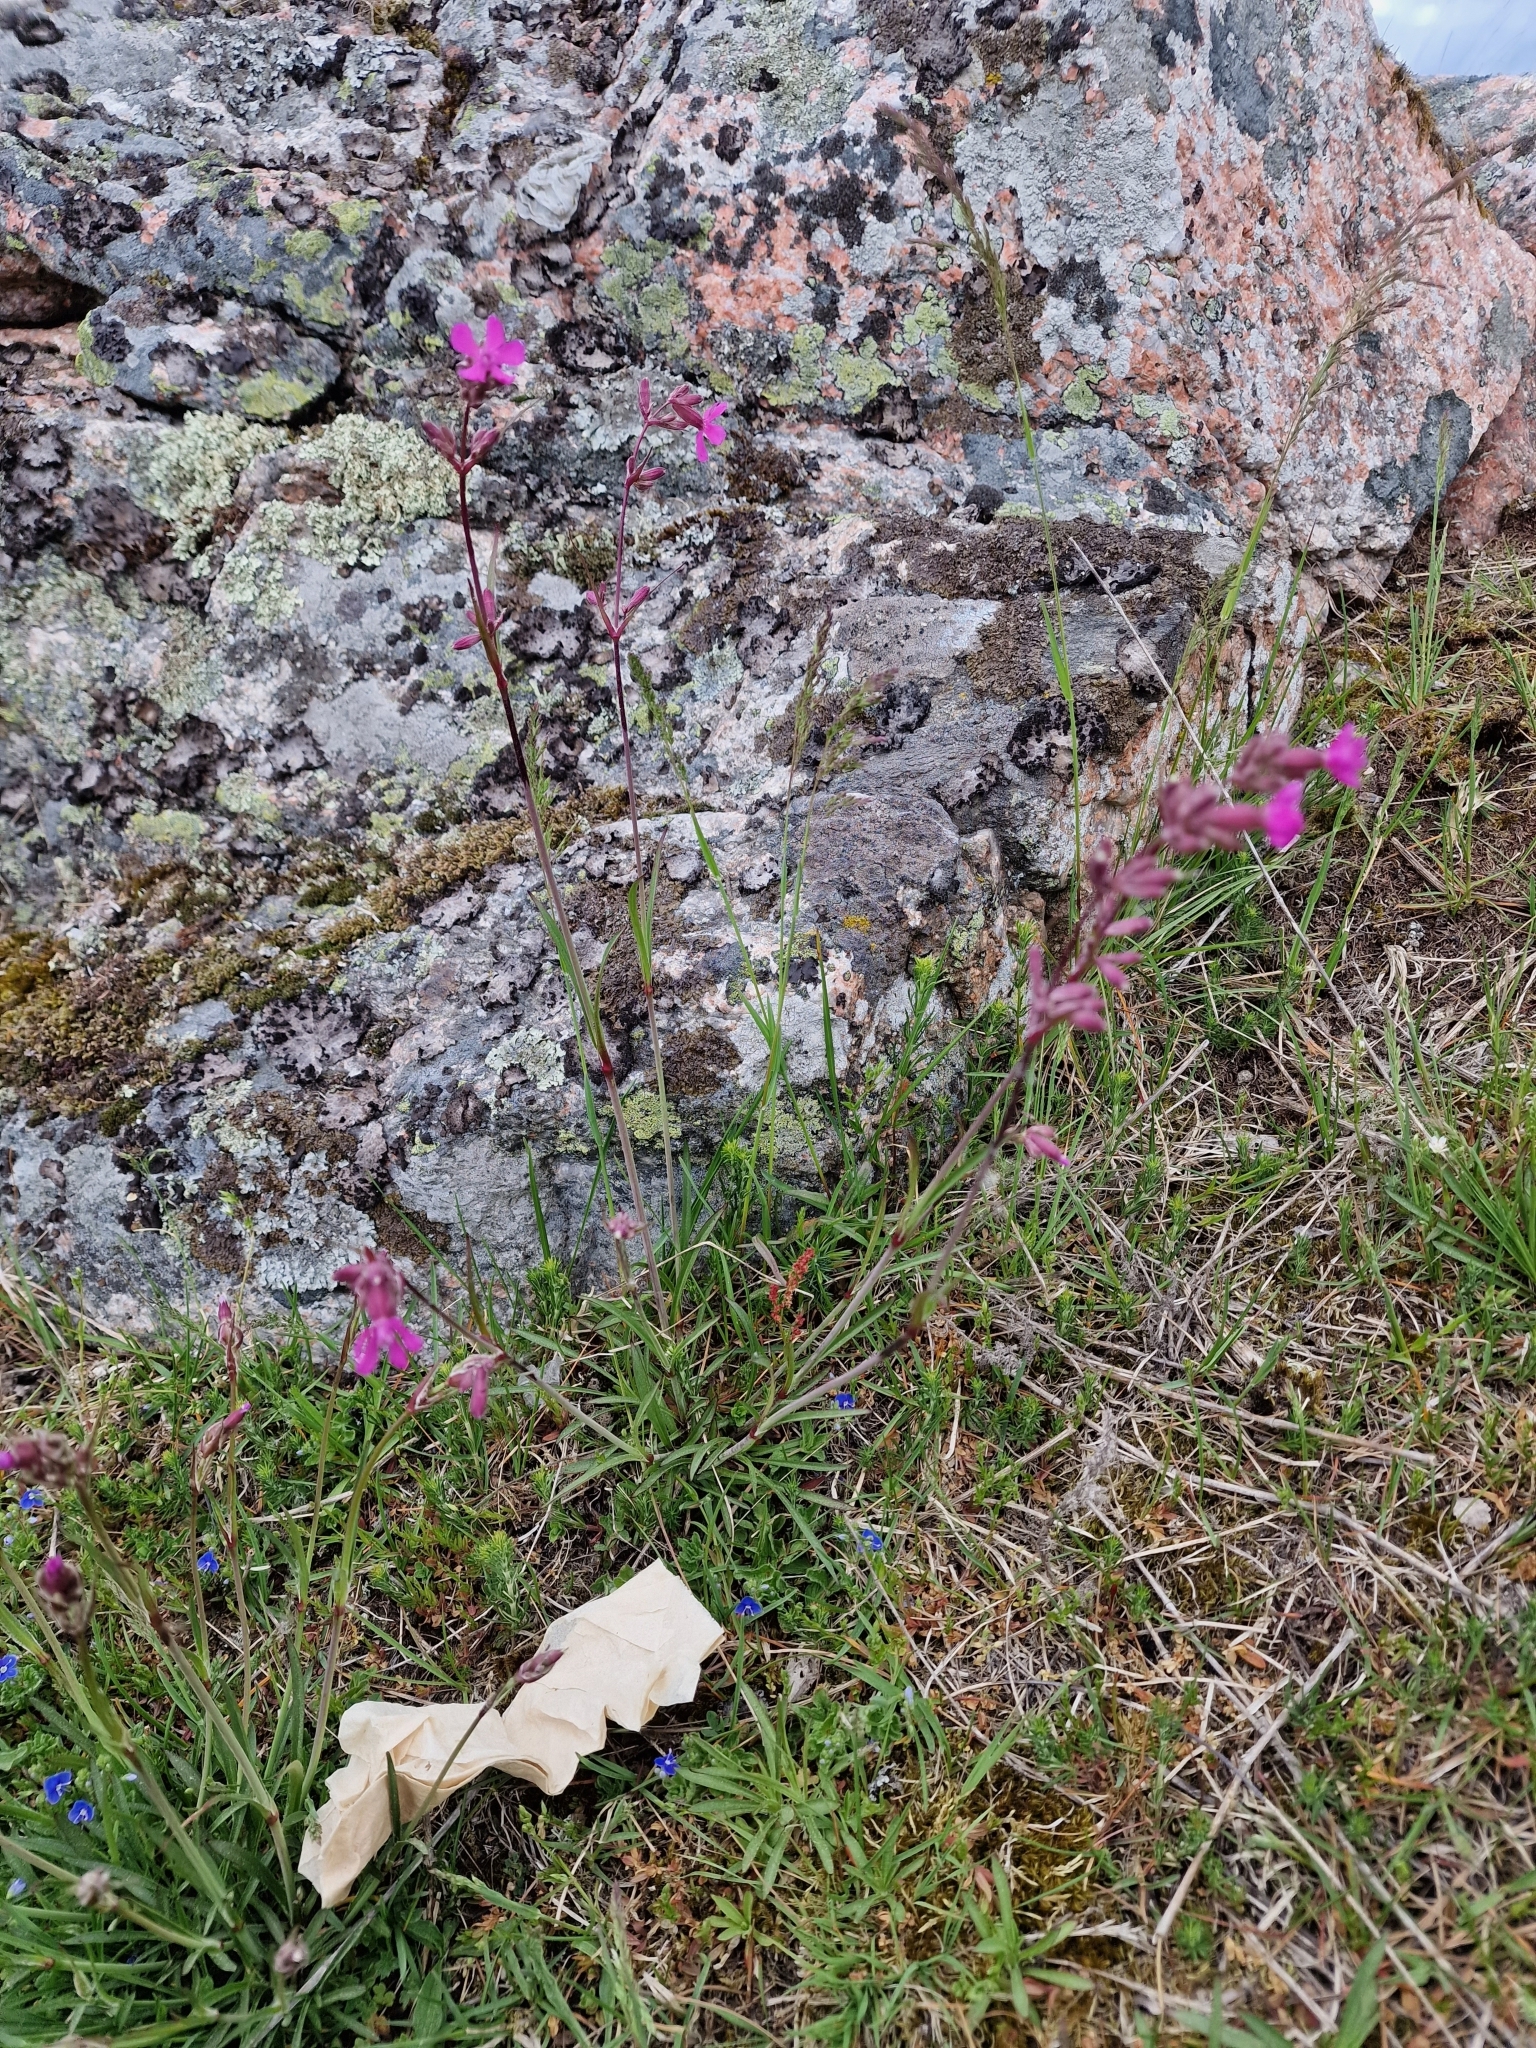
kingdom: Plantae
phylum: Tracheophyta
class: Magnoliopsida
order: Caryophyllales
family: Caryophyllaceae
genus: Viscaria
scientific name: Viscaria vulgaris
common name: Clammy campion
